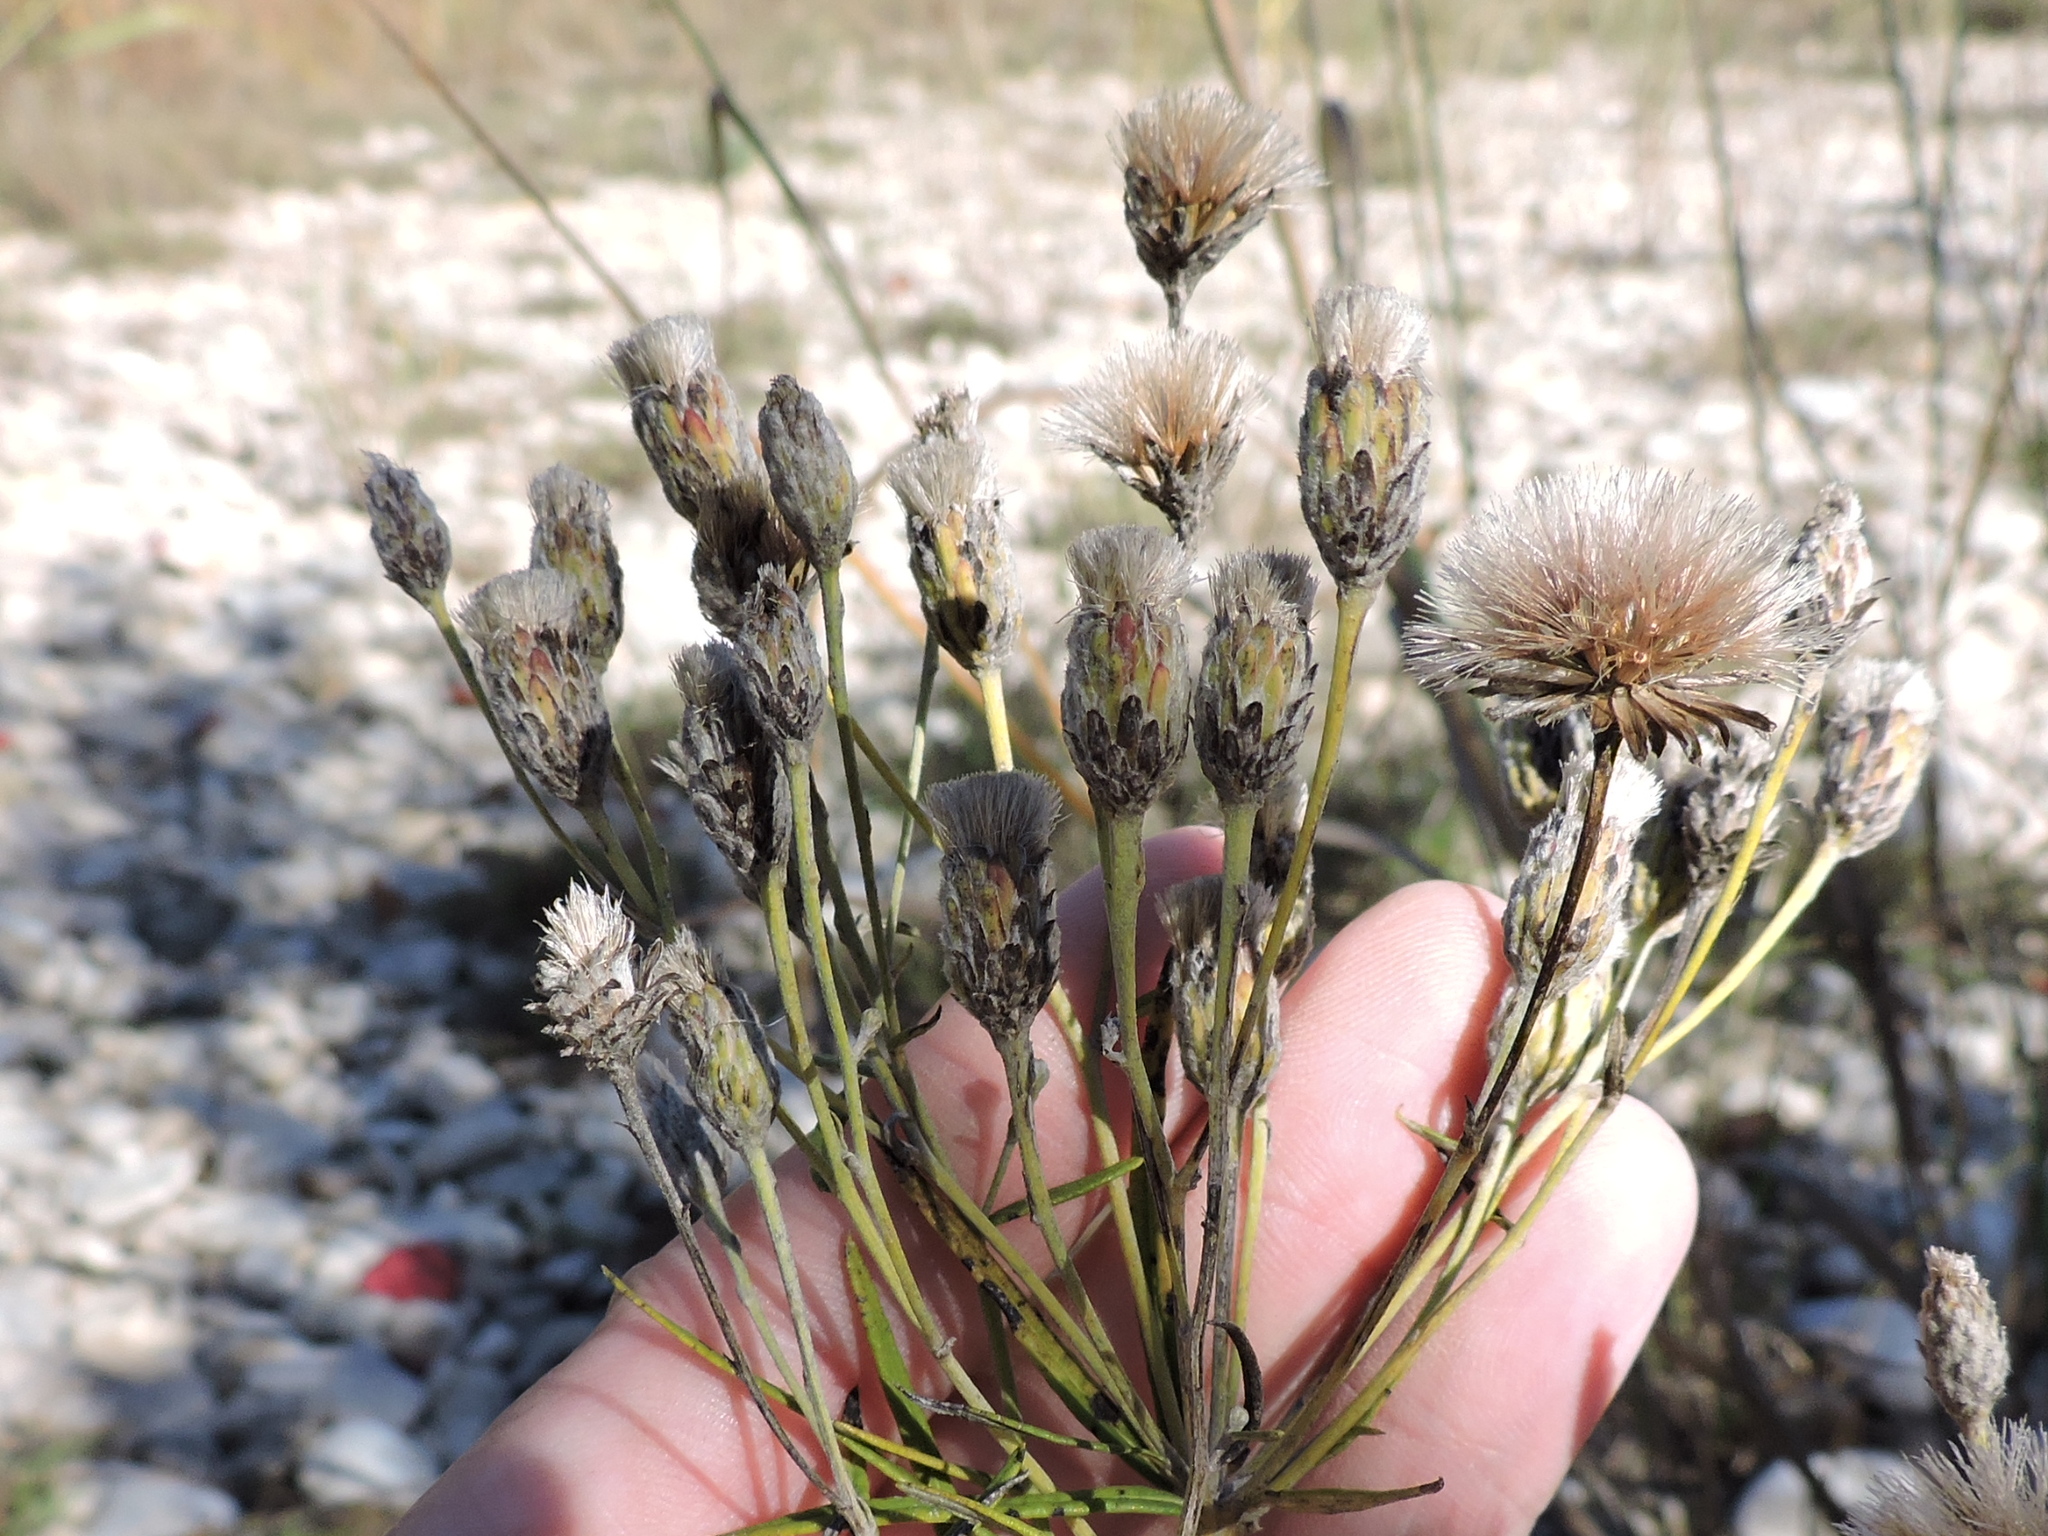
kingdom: Plantae
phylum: Tracheophyta
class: Magnoliopsida
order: Asterales
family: Asteraceae
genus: Vernonia
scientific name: Vernonia lindheimeri
